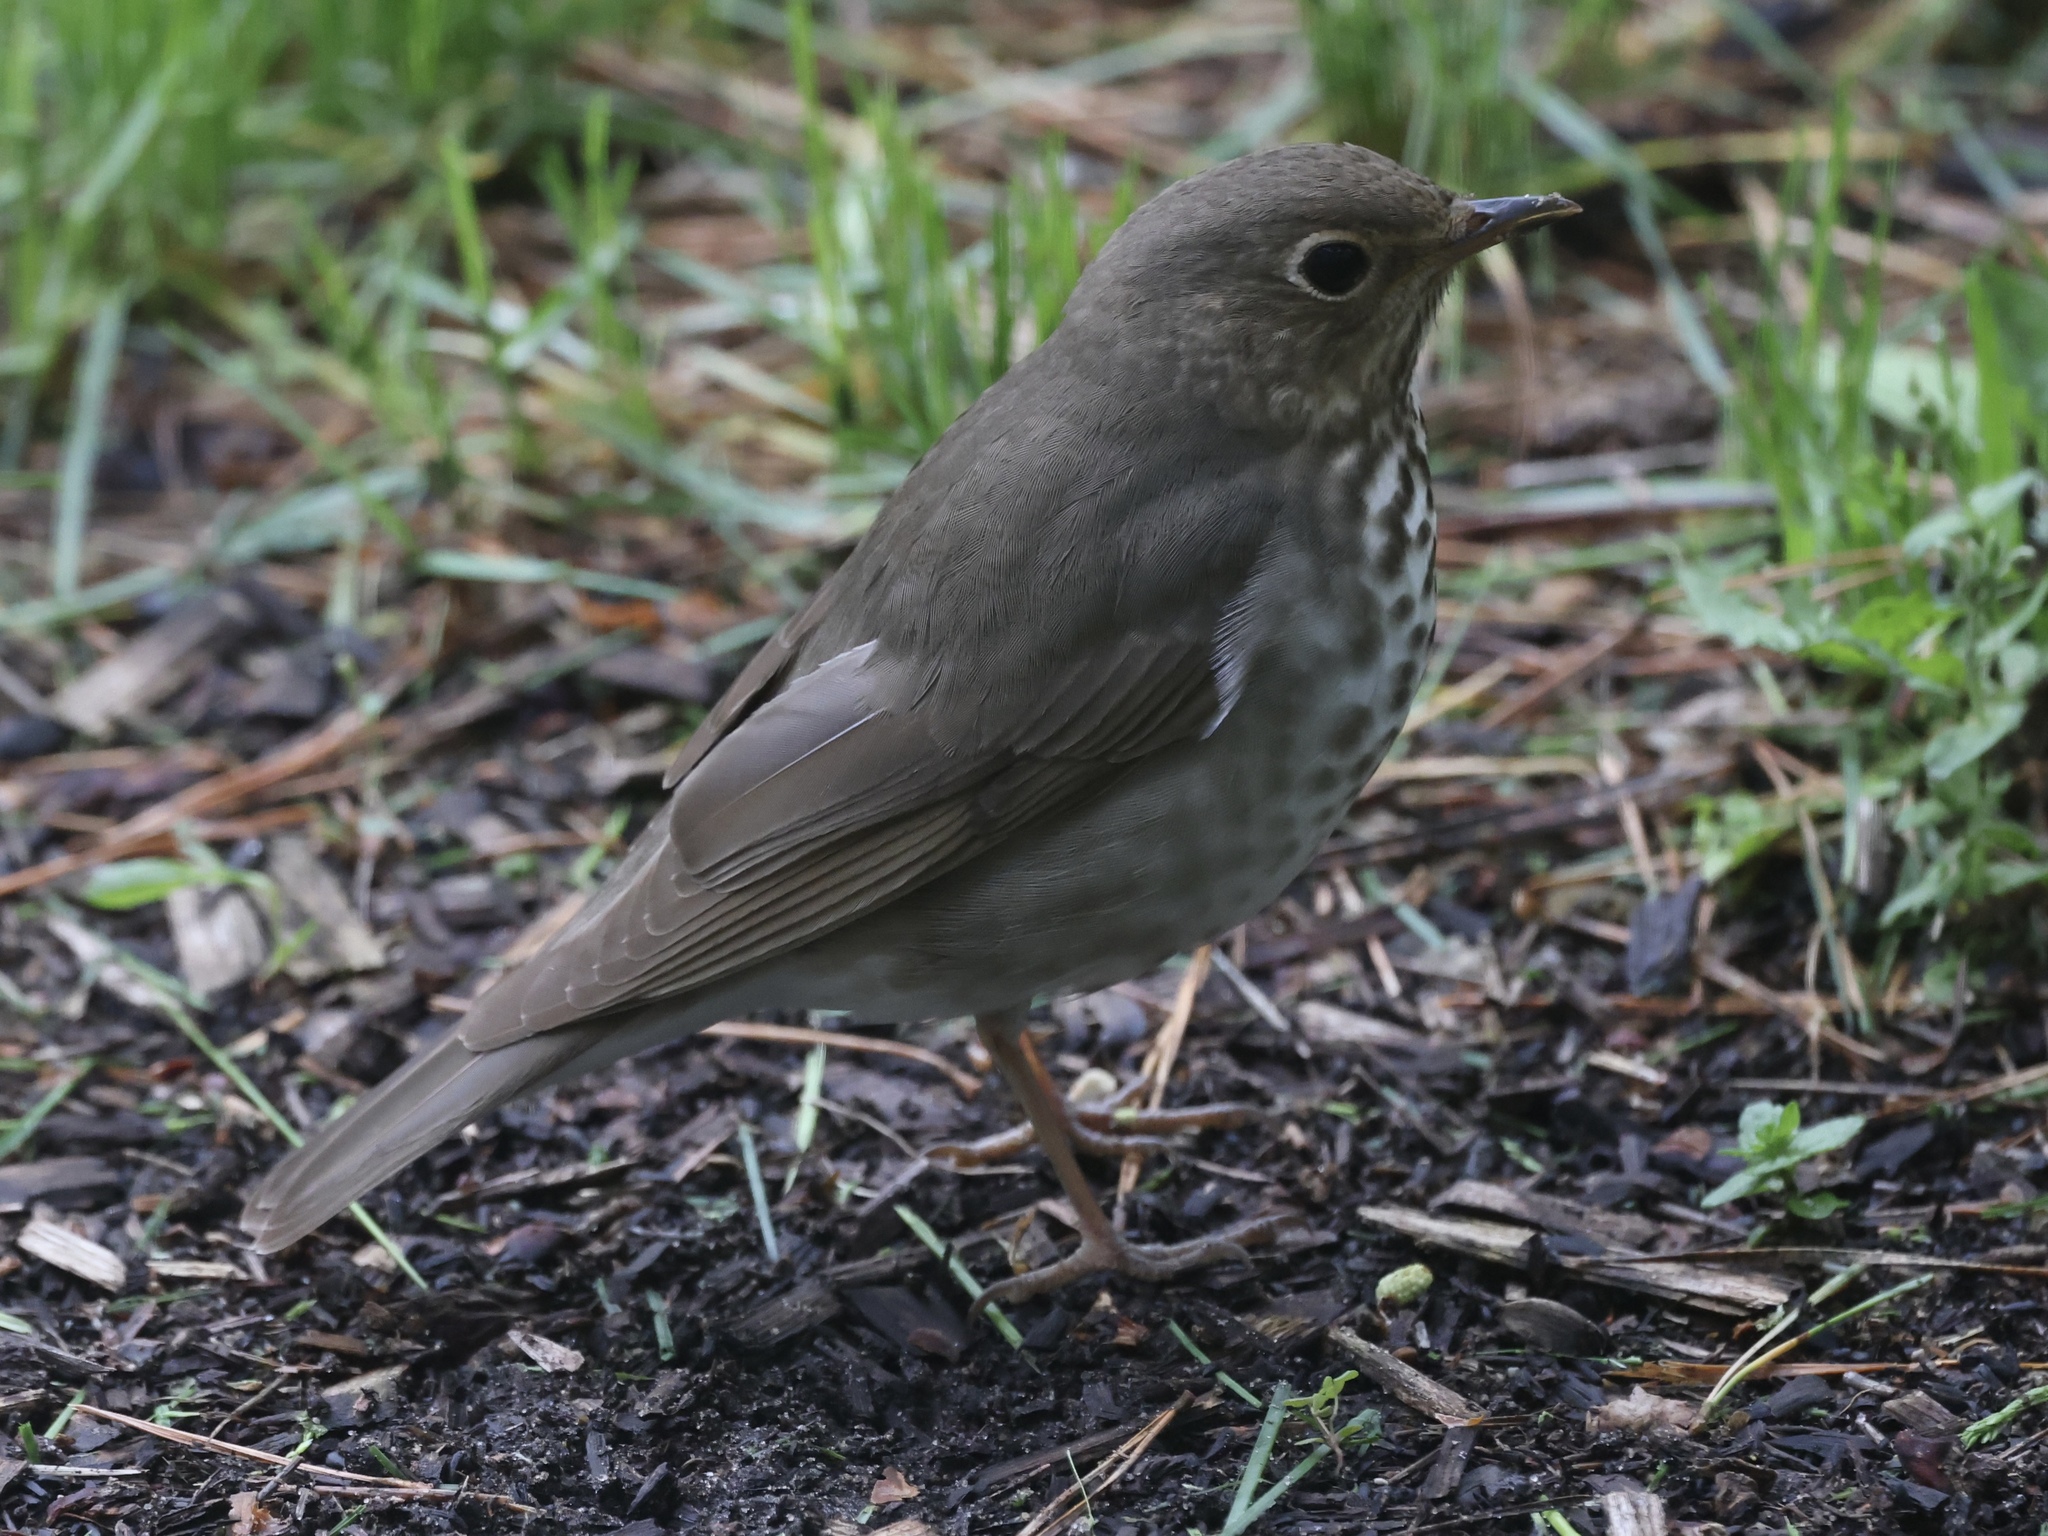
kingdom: Animalia
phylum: Chordata
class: Aves
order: Passeriformes
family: Turdidae
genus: Catharus
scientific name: Catharus ustulatus
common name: Swainson's thrush
